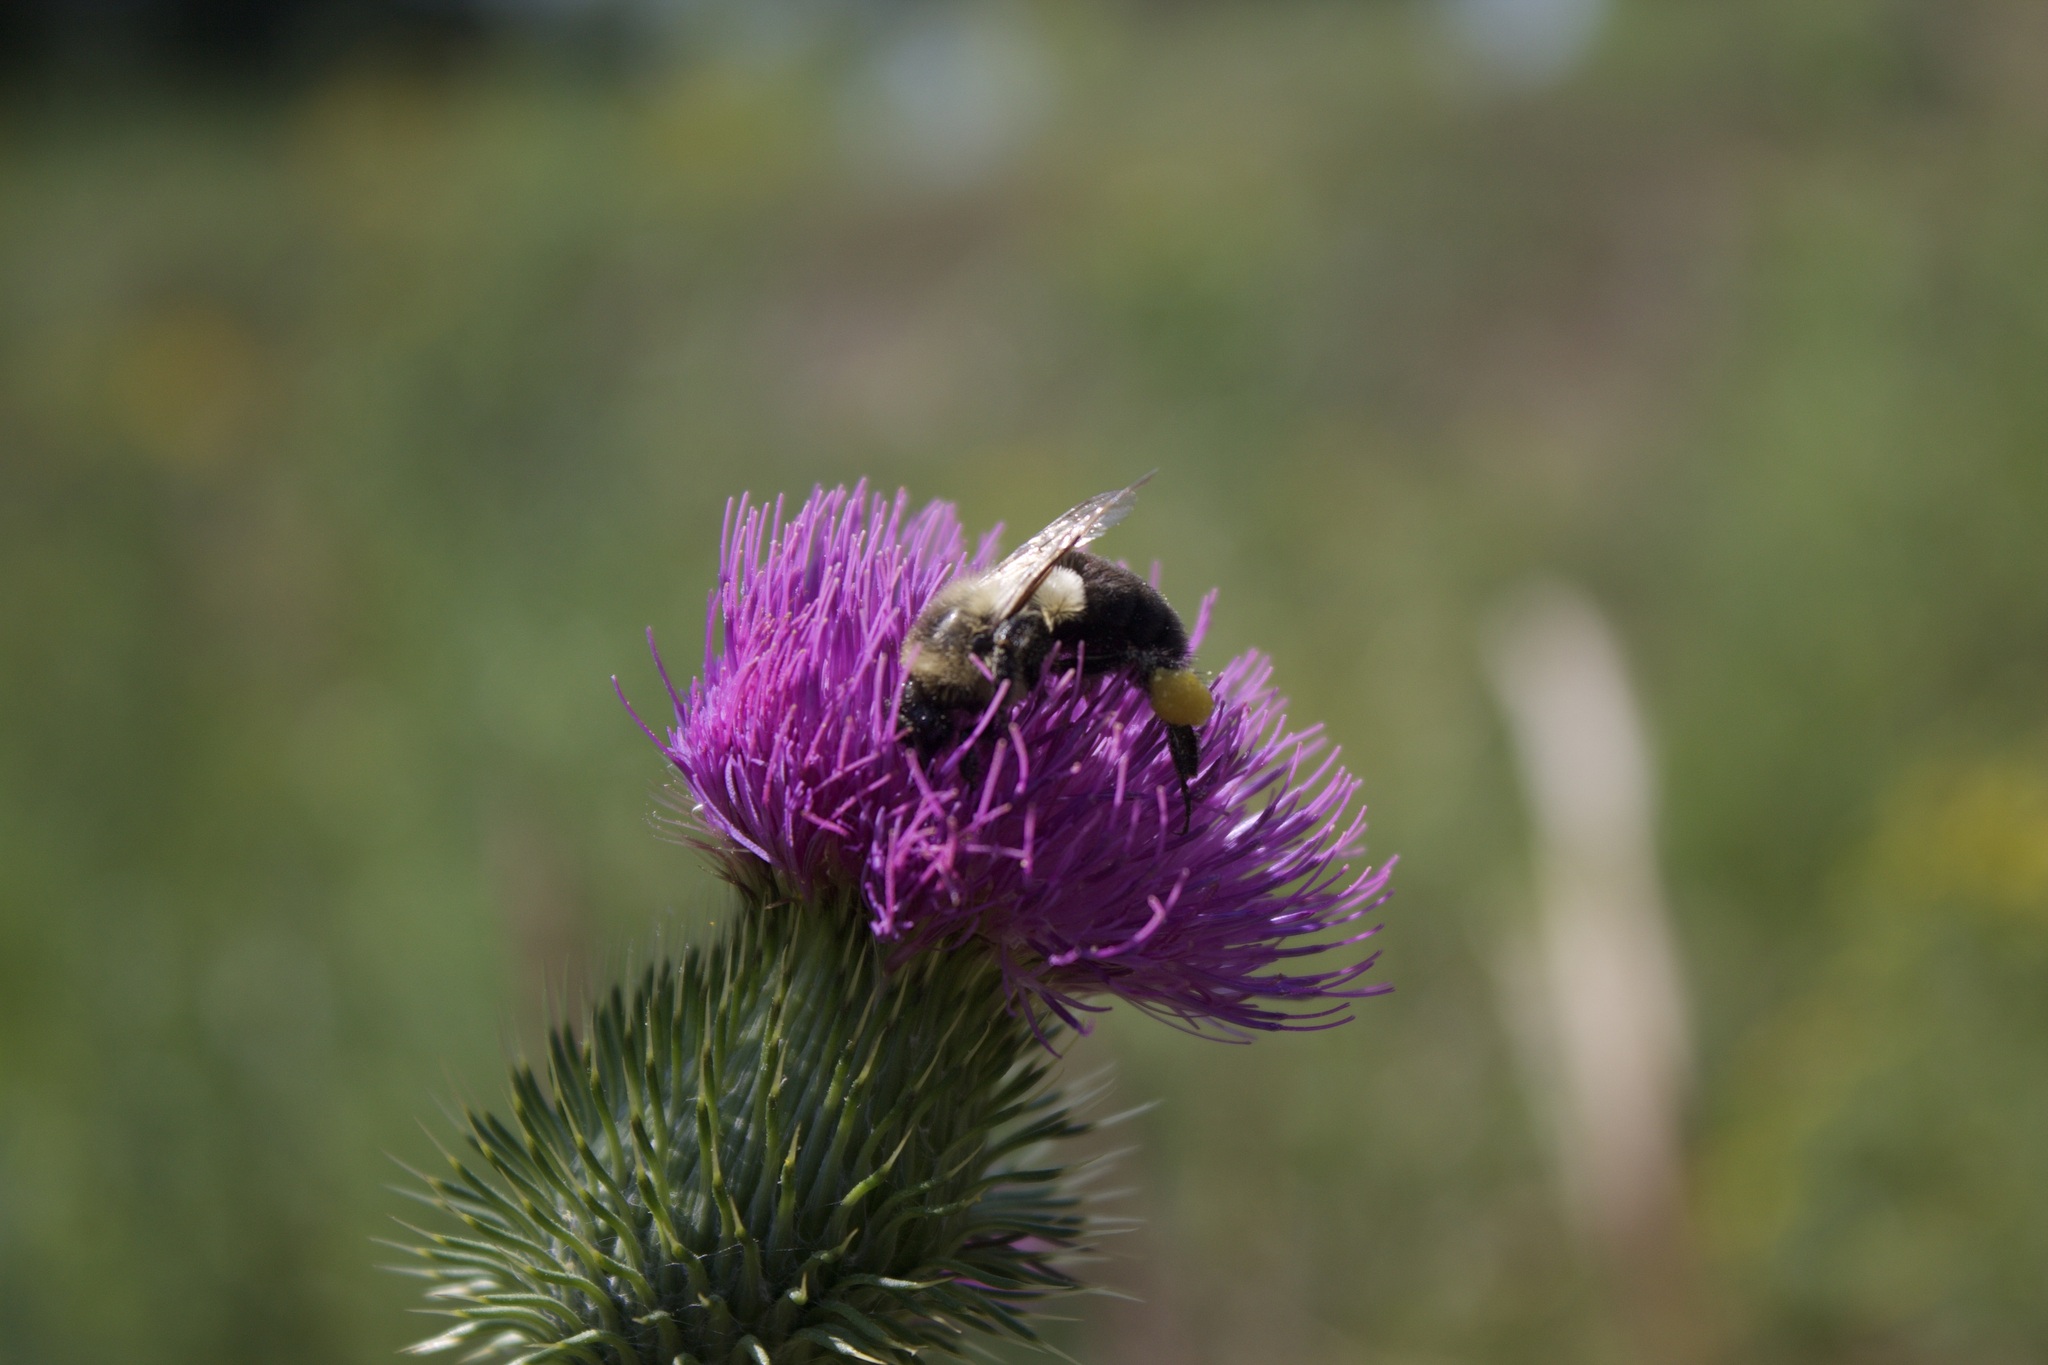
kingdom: Animalia
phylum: Arthropoda
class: Insecta
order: Hymenoptera
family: Apidae
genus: Bombus
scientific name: Bombus impatiens
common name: Common eastern bumble bee
